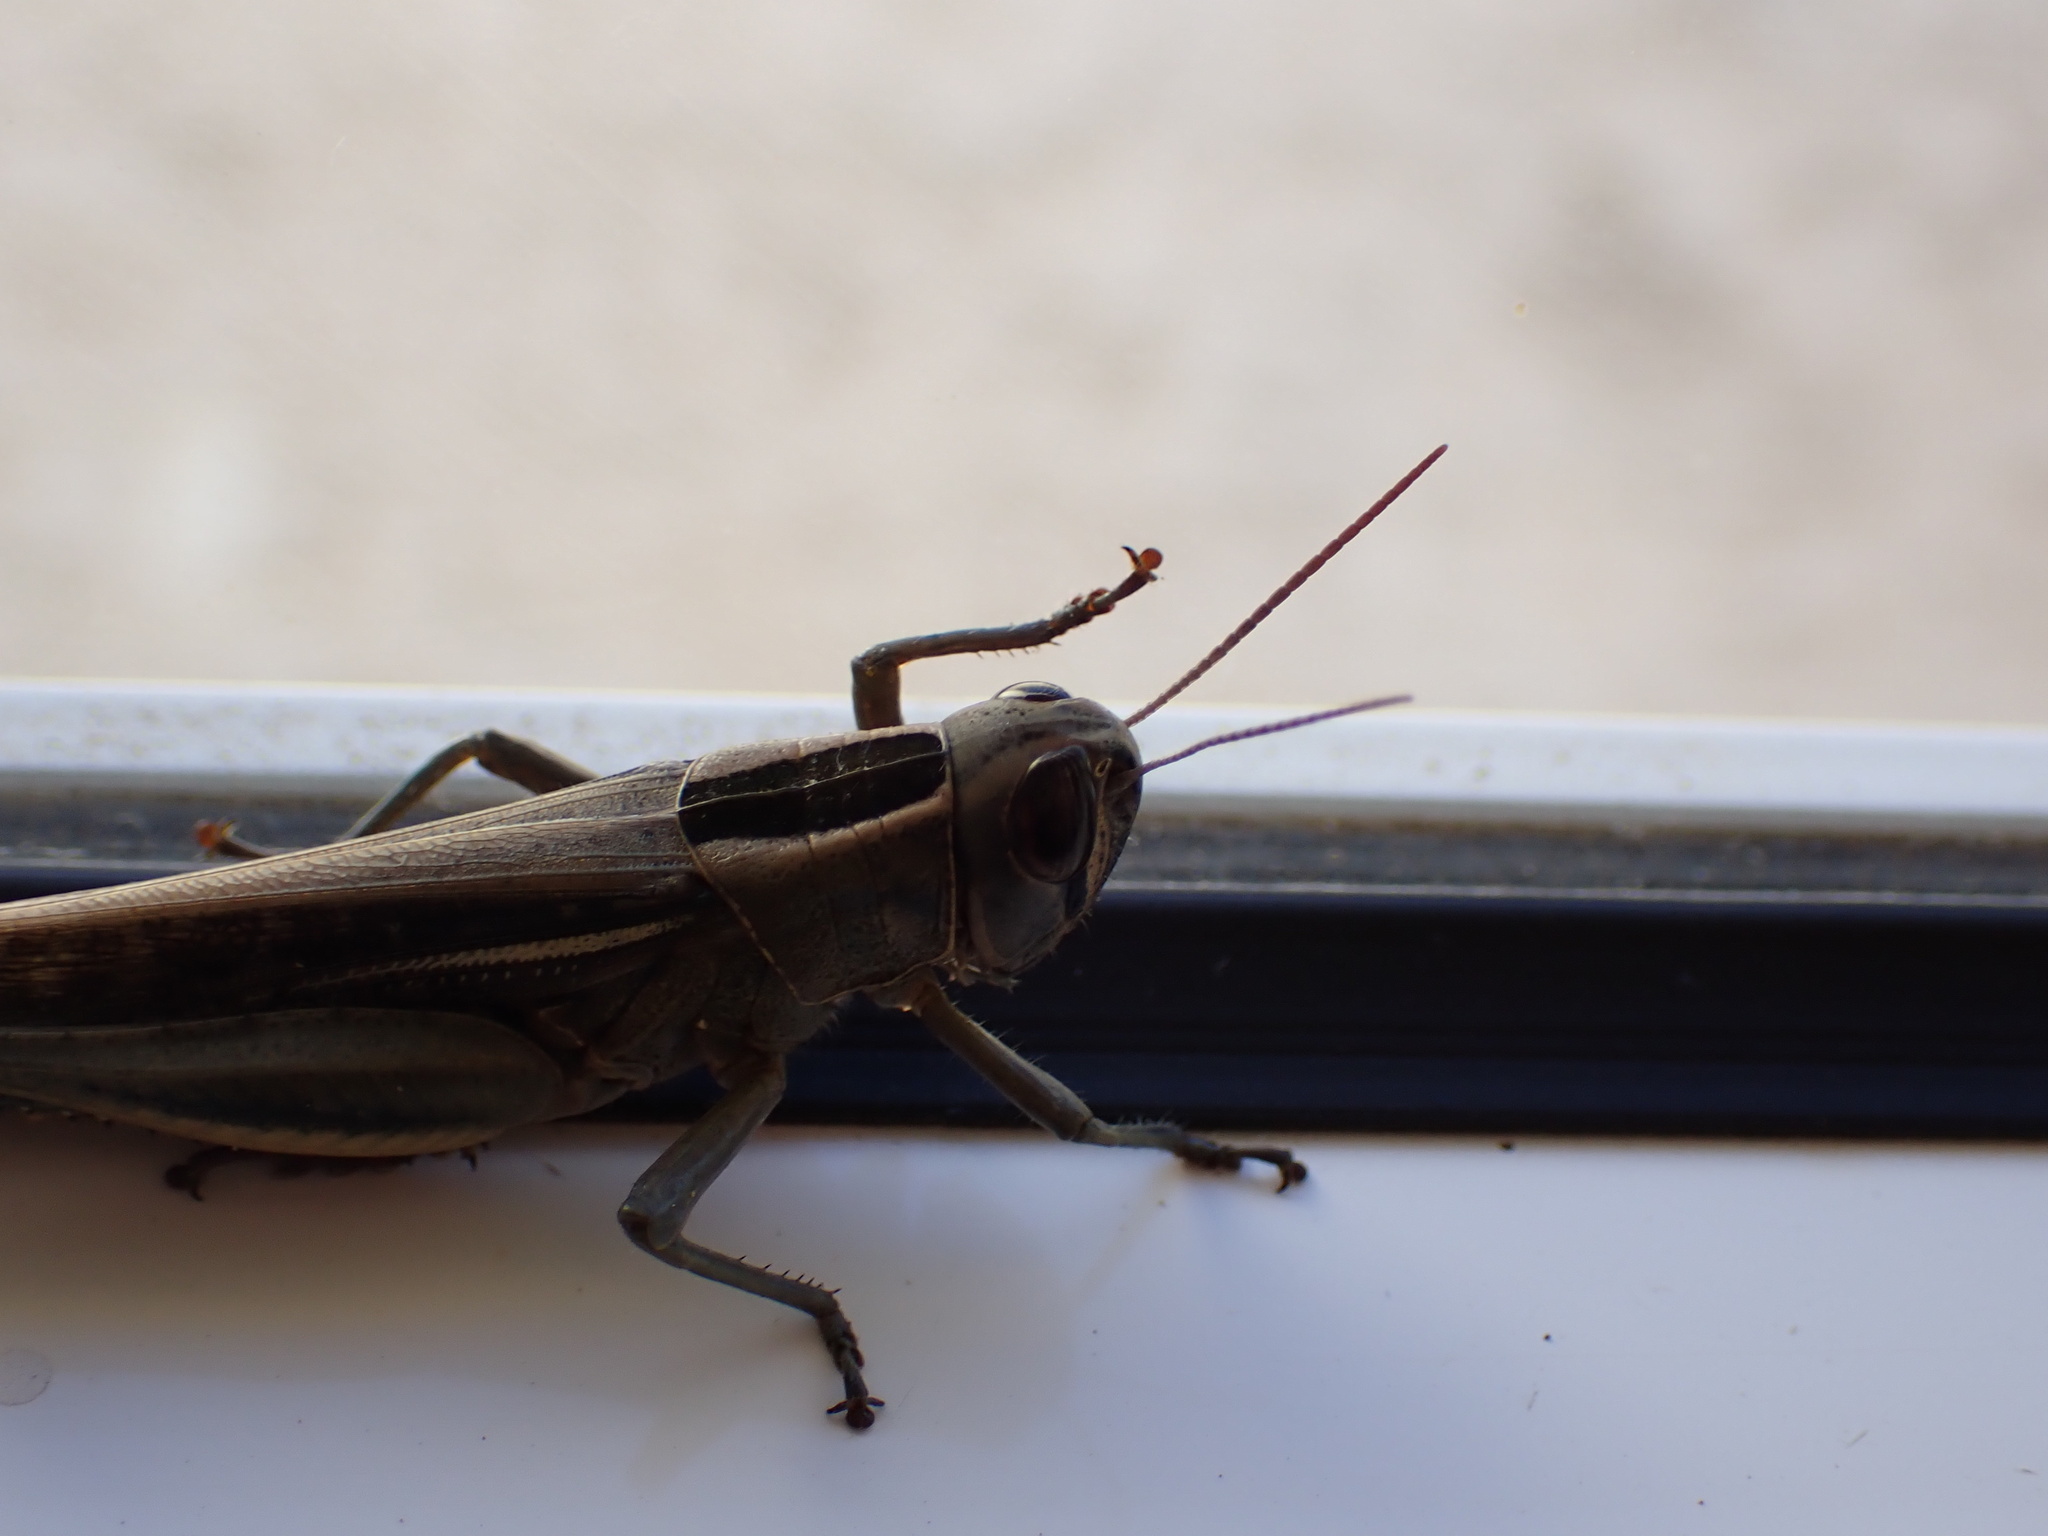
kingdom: Animalia
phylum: Arthropoda
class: Insecta
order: Orthoptera
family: Acrididae
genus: Eyprepocnemis
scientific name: Eyprepocnemis plorans
